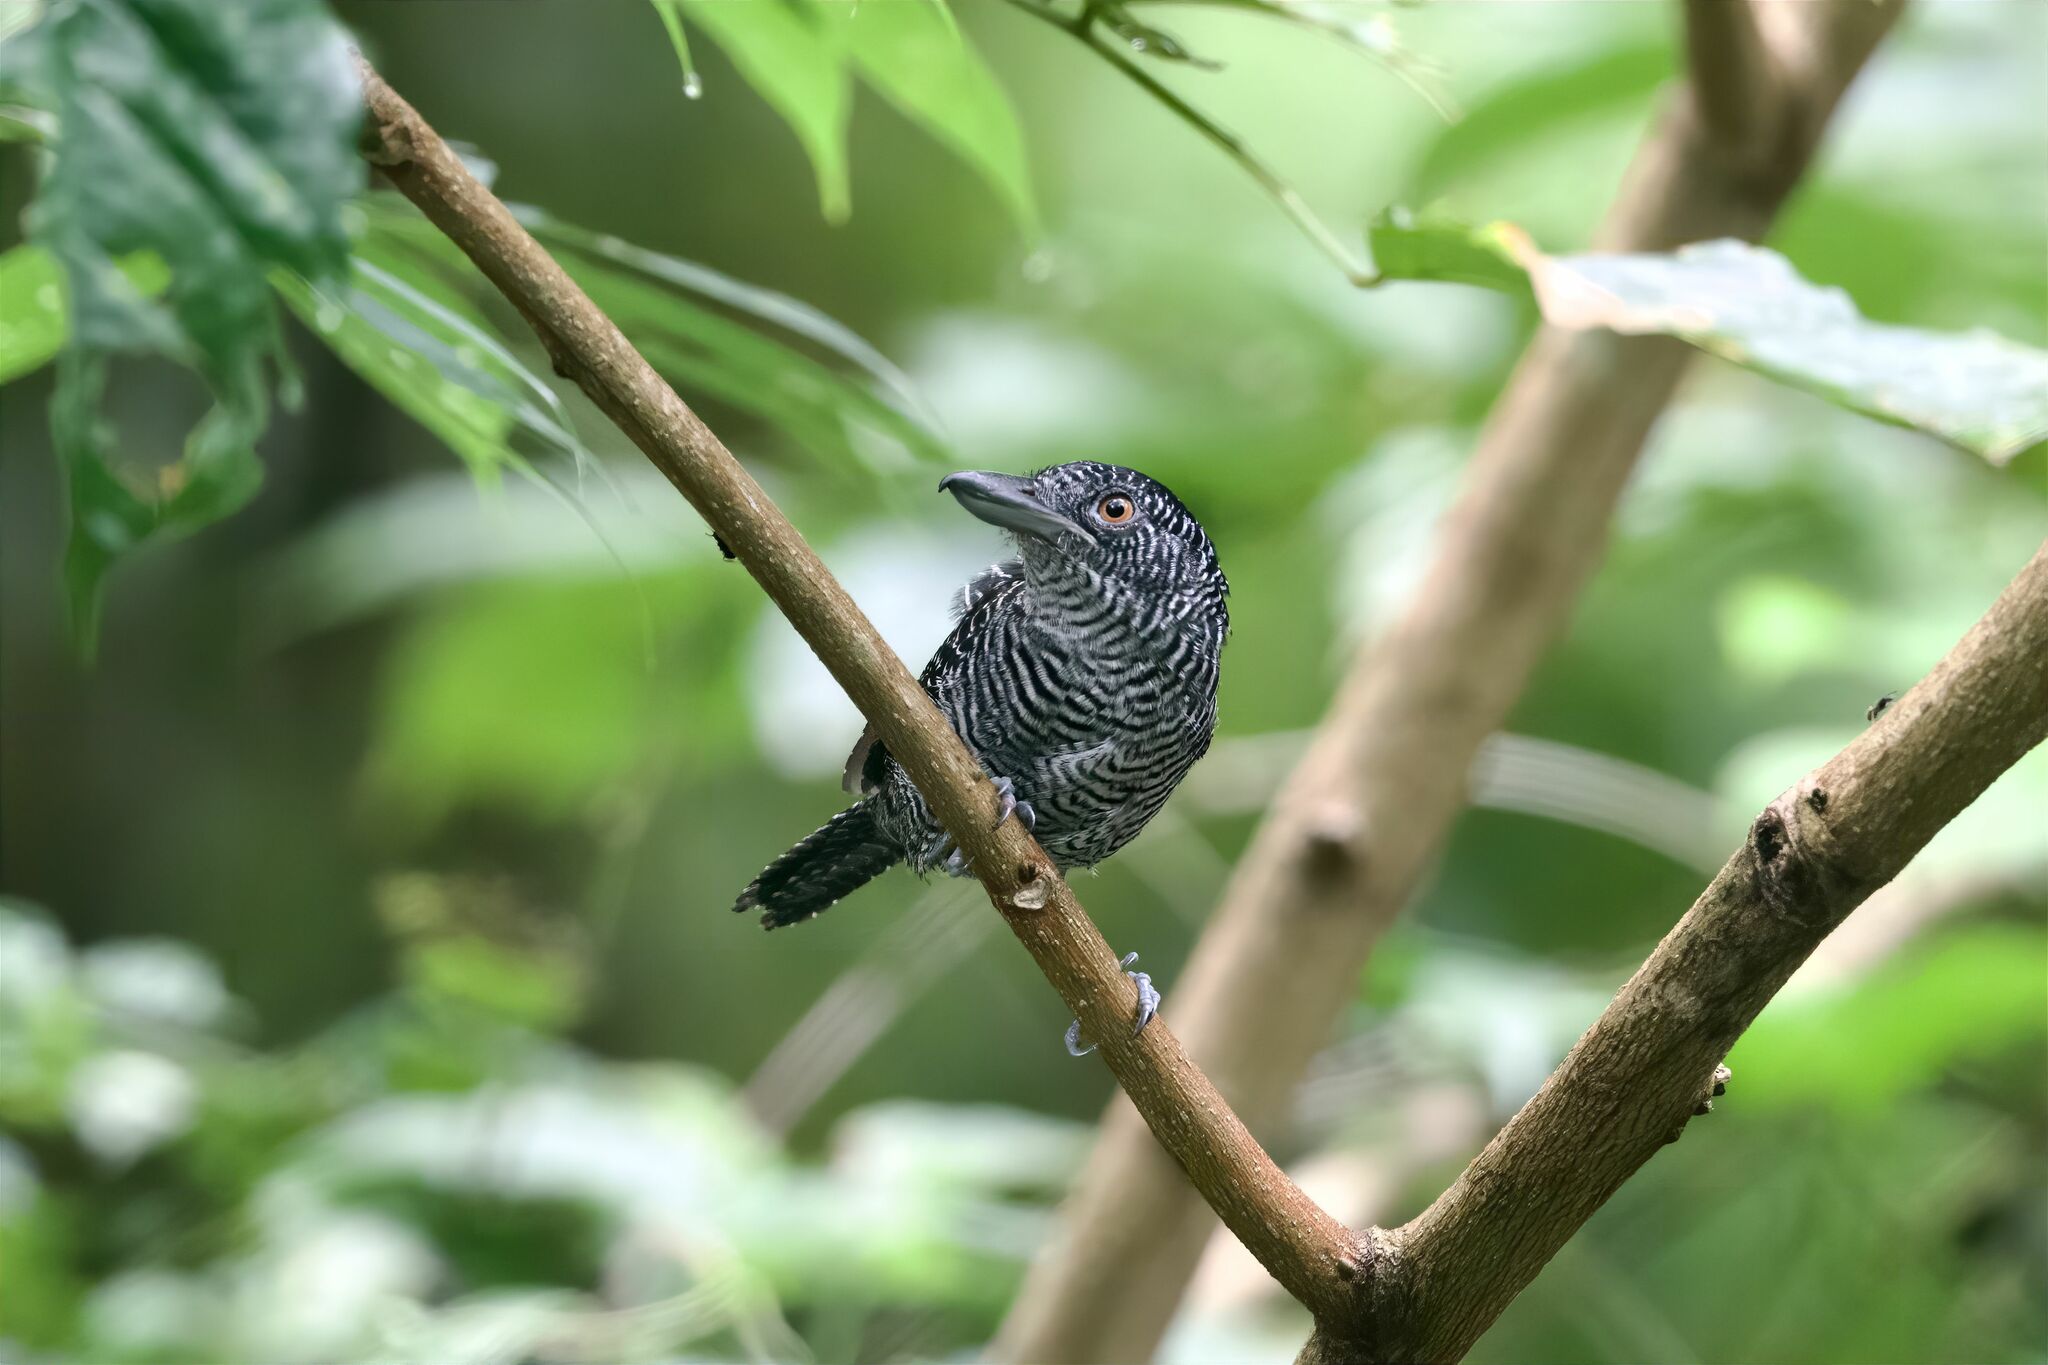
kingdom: Animalia
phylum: Chordata
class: Aves
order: Passeriformes
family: Thamnophilidae
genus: Cymbilaimus
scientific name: Cymbilaimus lineatus
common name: Fasciated antshrike
